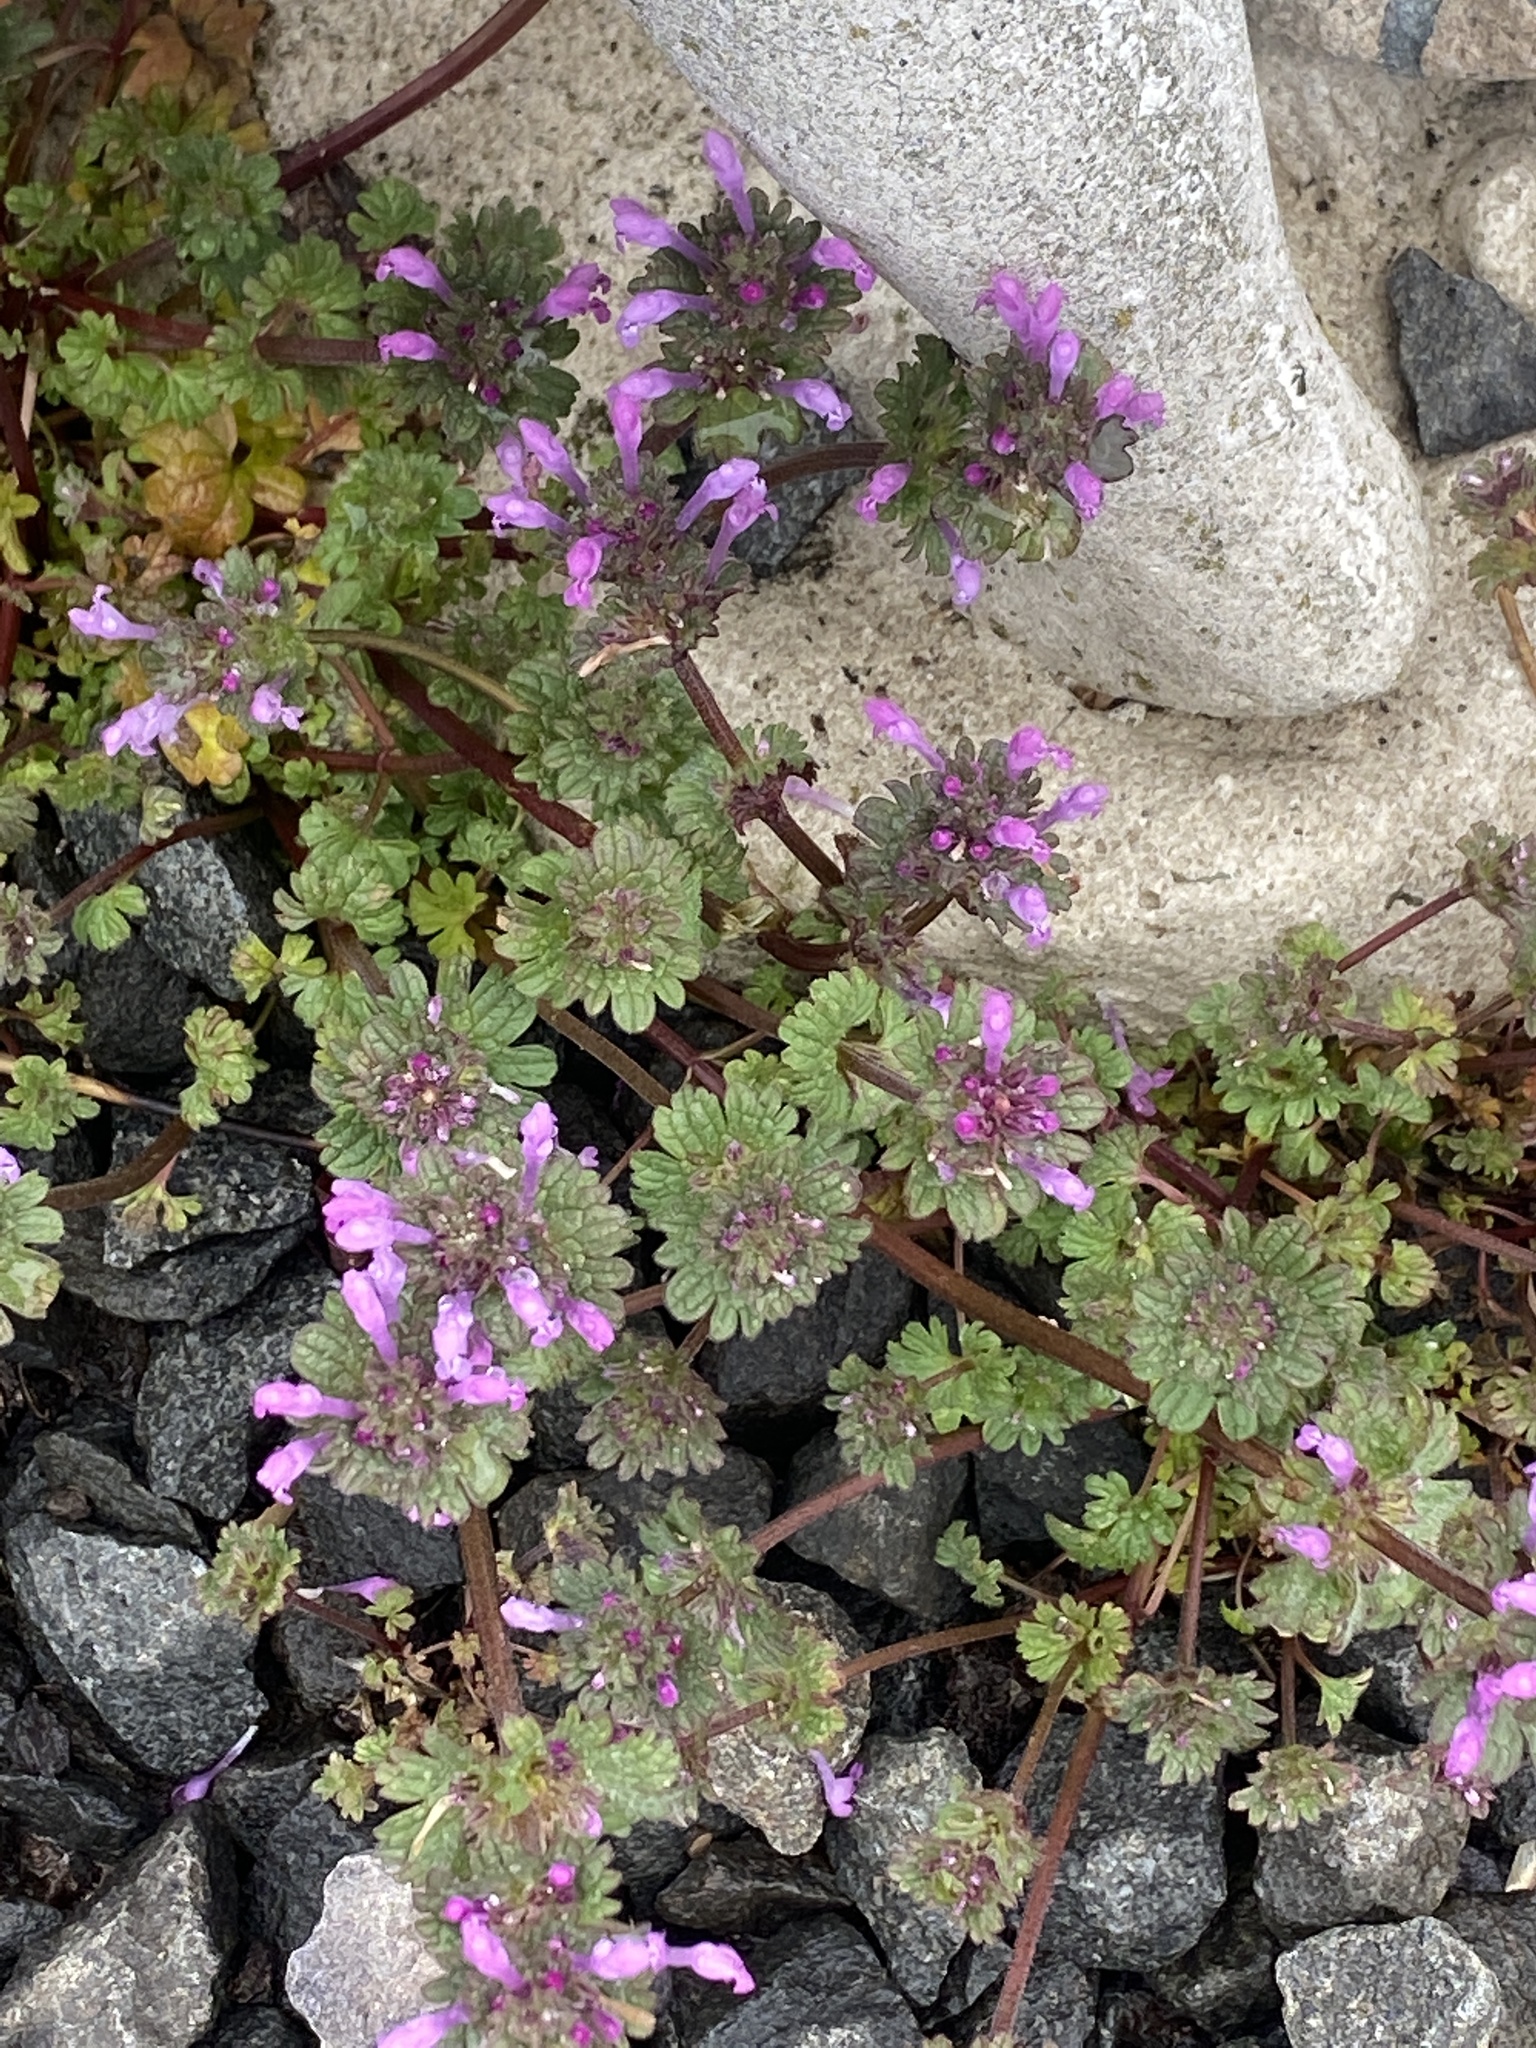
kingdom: Plantae
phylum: Tracheophyta
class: Magnoliopsida
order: Lamiales
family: Lamiaceae
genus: Lamium
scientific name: Lamium amplexicaule
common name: Henbit dead-nettle
